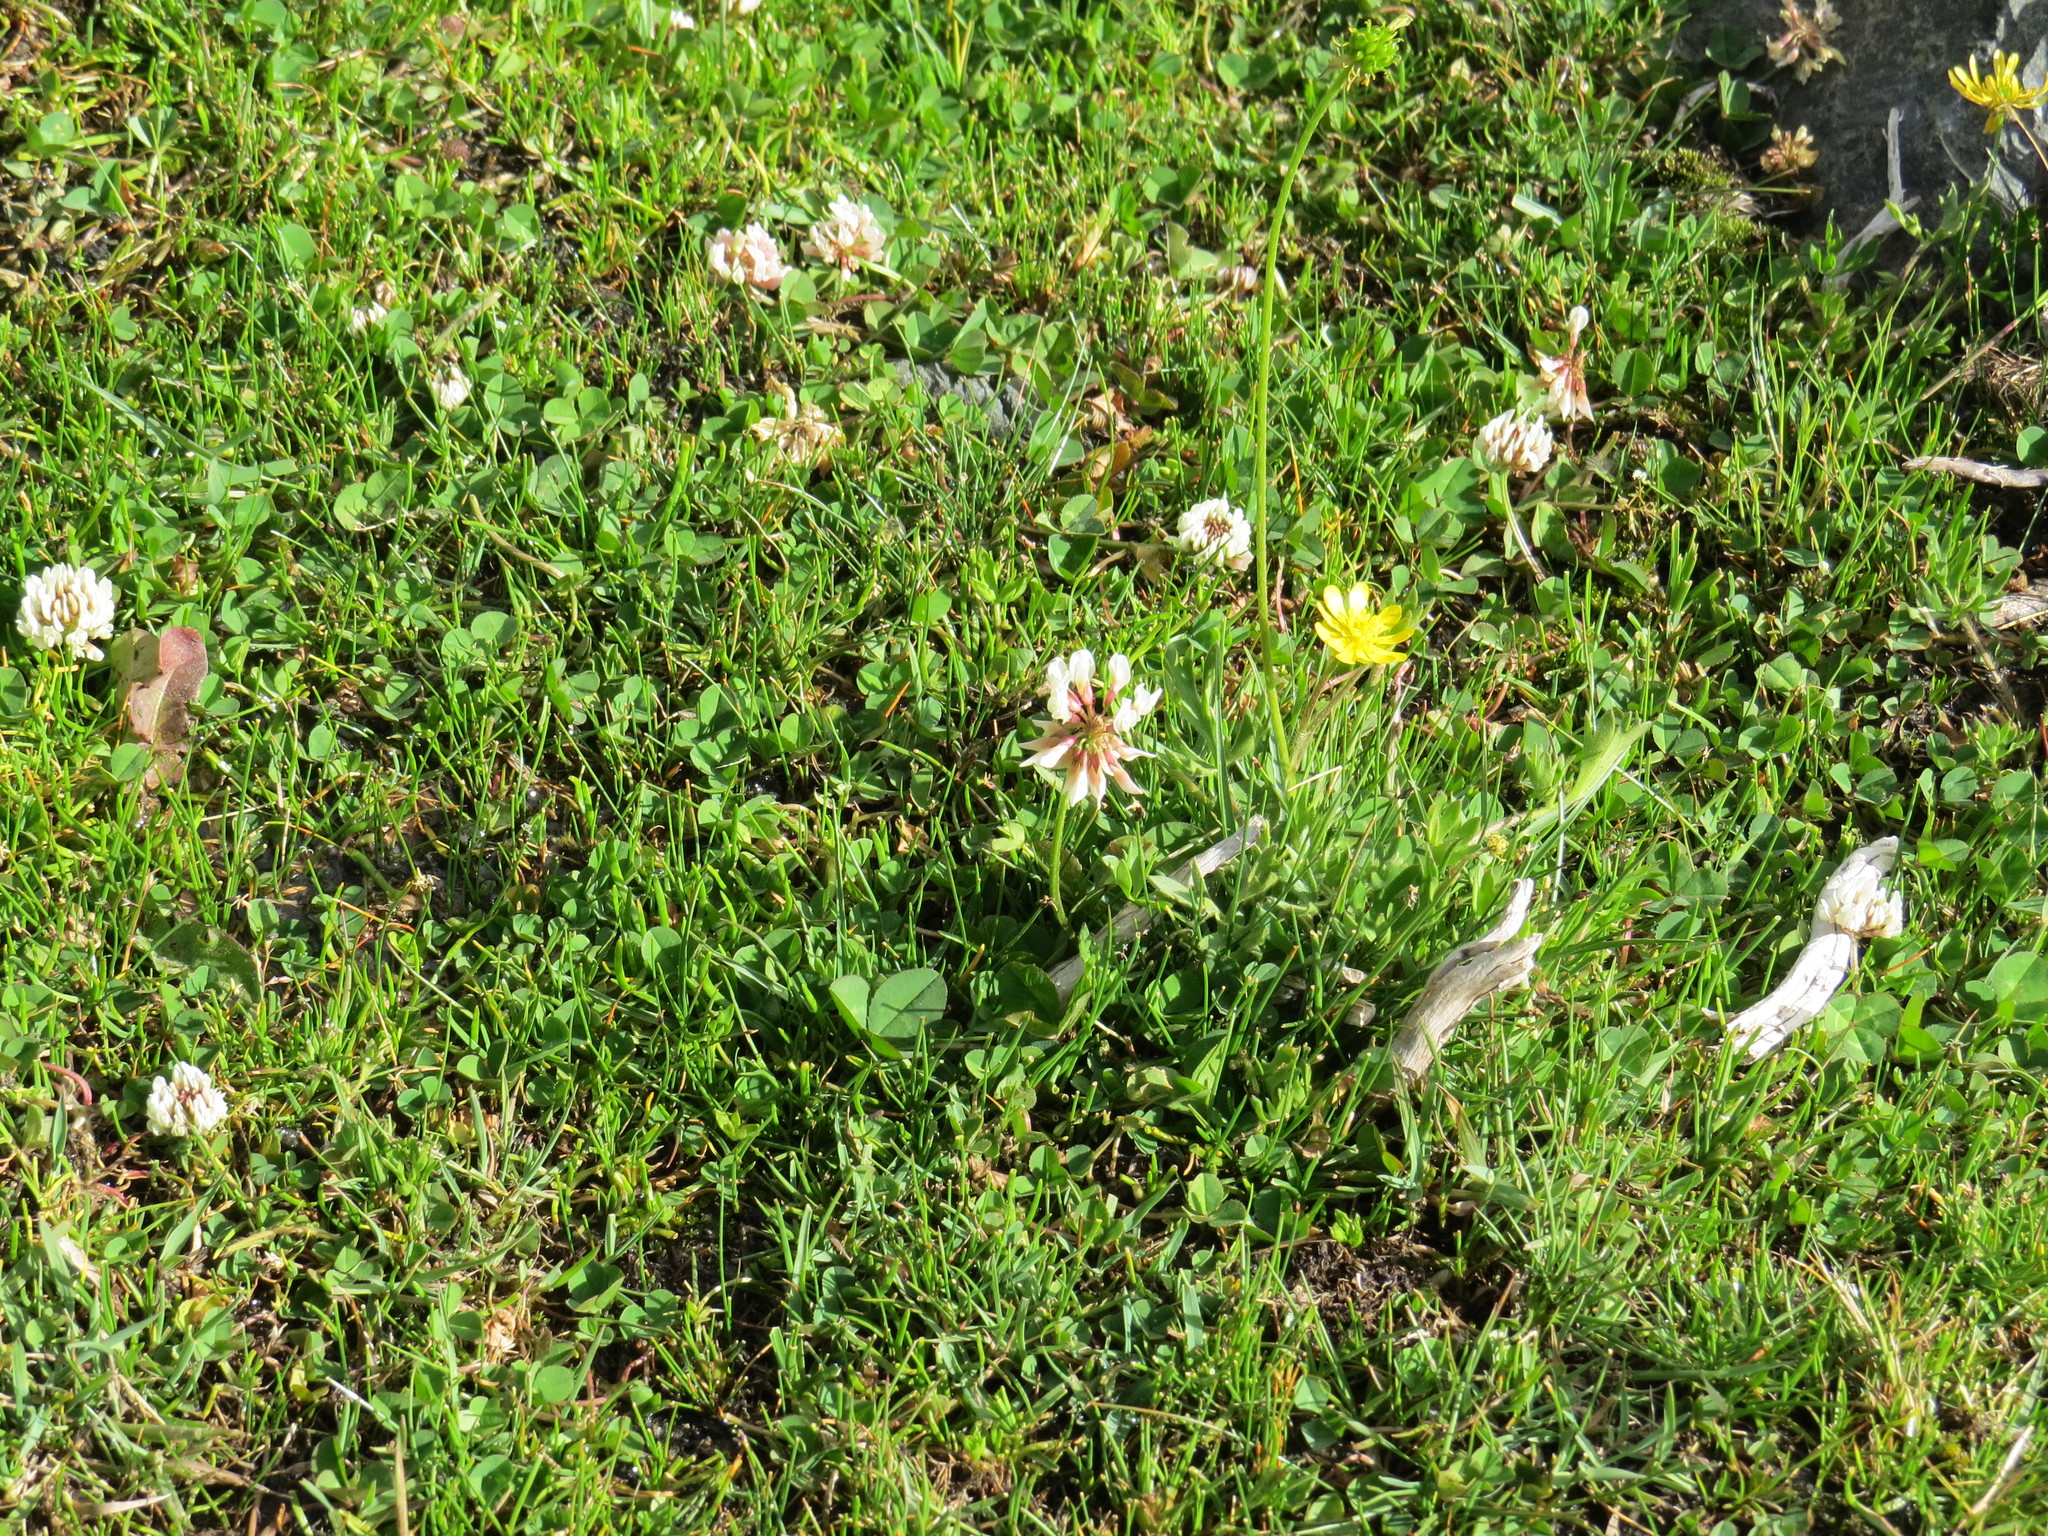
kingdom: Plantae
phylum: Tracheophyta
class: Magnoliopsida
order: Fabales
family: Fabaceae
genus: Trifolium
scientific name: Trifolium repens
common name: White clover
